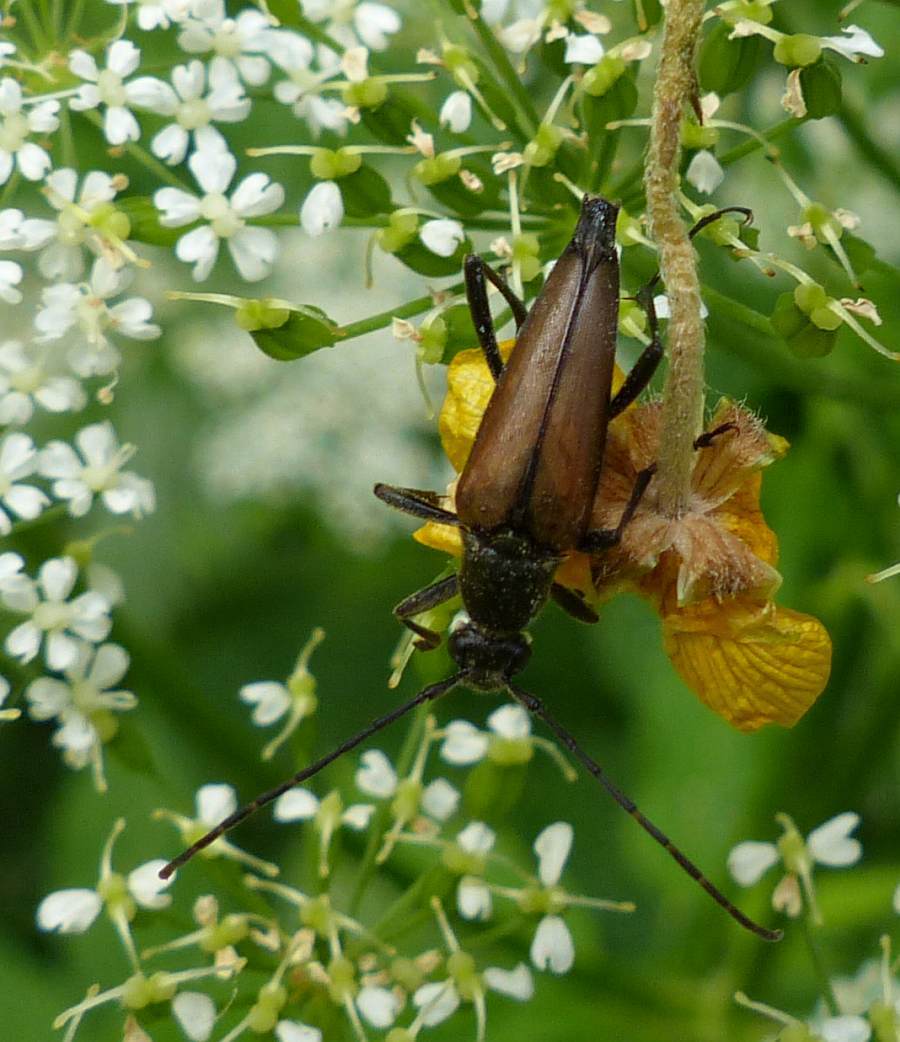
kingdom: Animalia
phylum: Arthropoda
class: Insecta
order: Coleoptera
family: Cerambycidae
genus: Etorofus
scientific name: Etorofus
